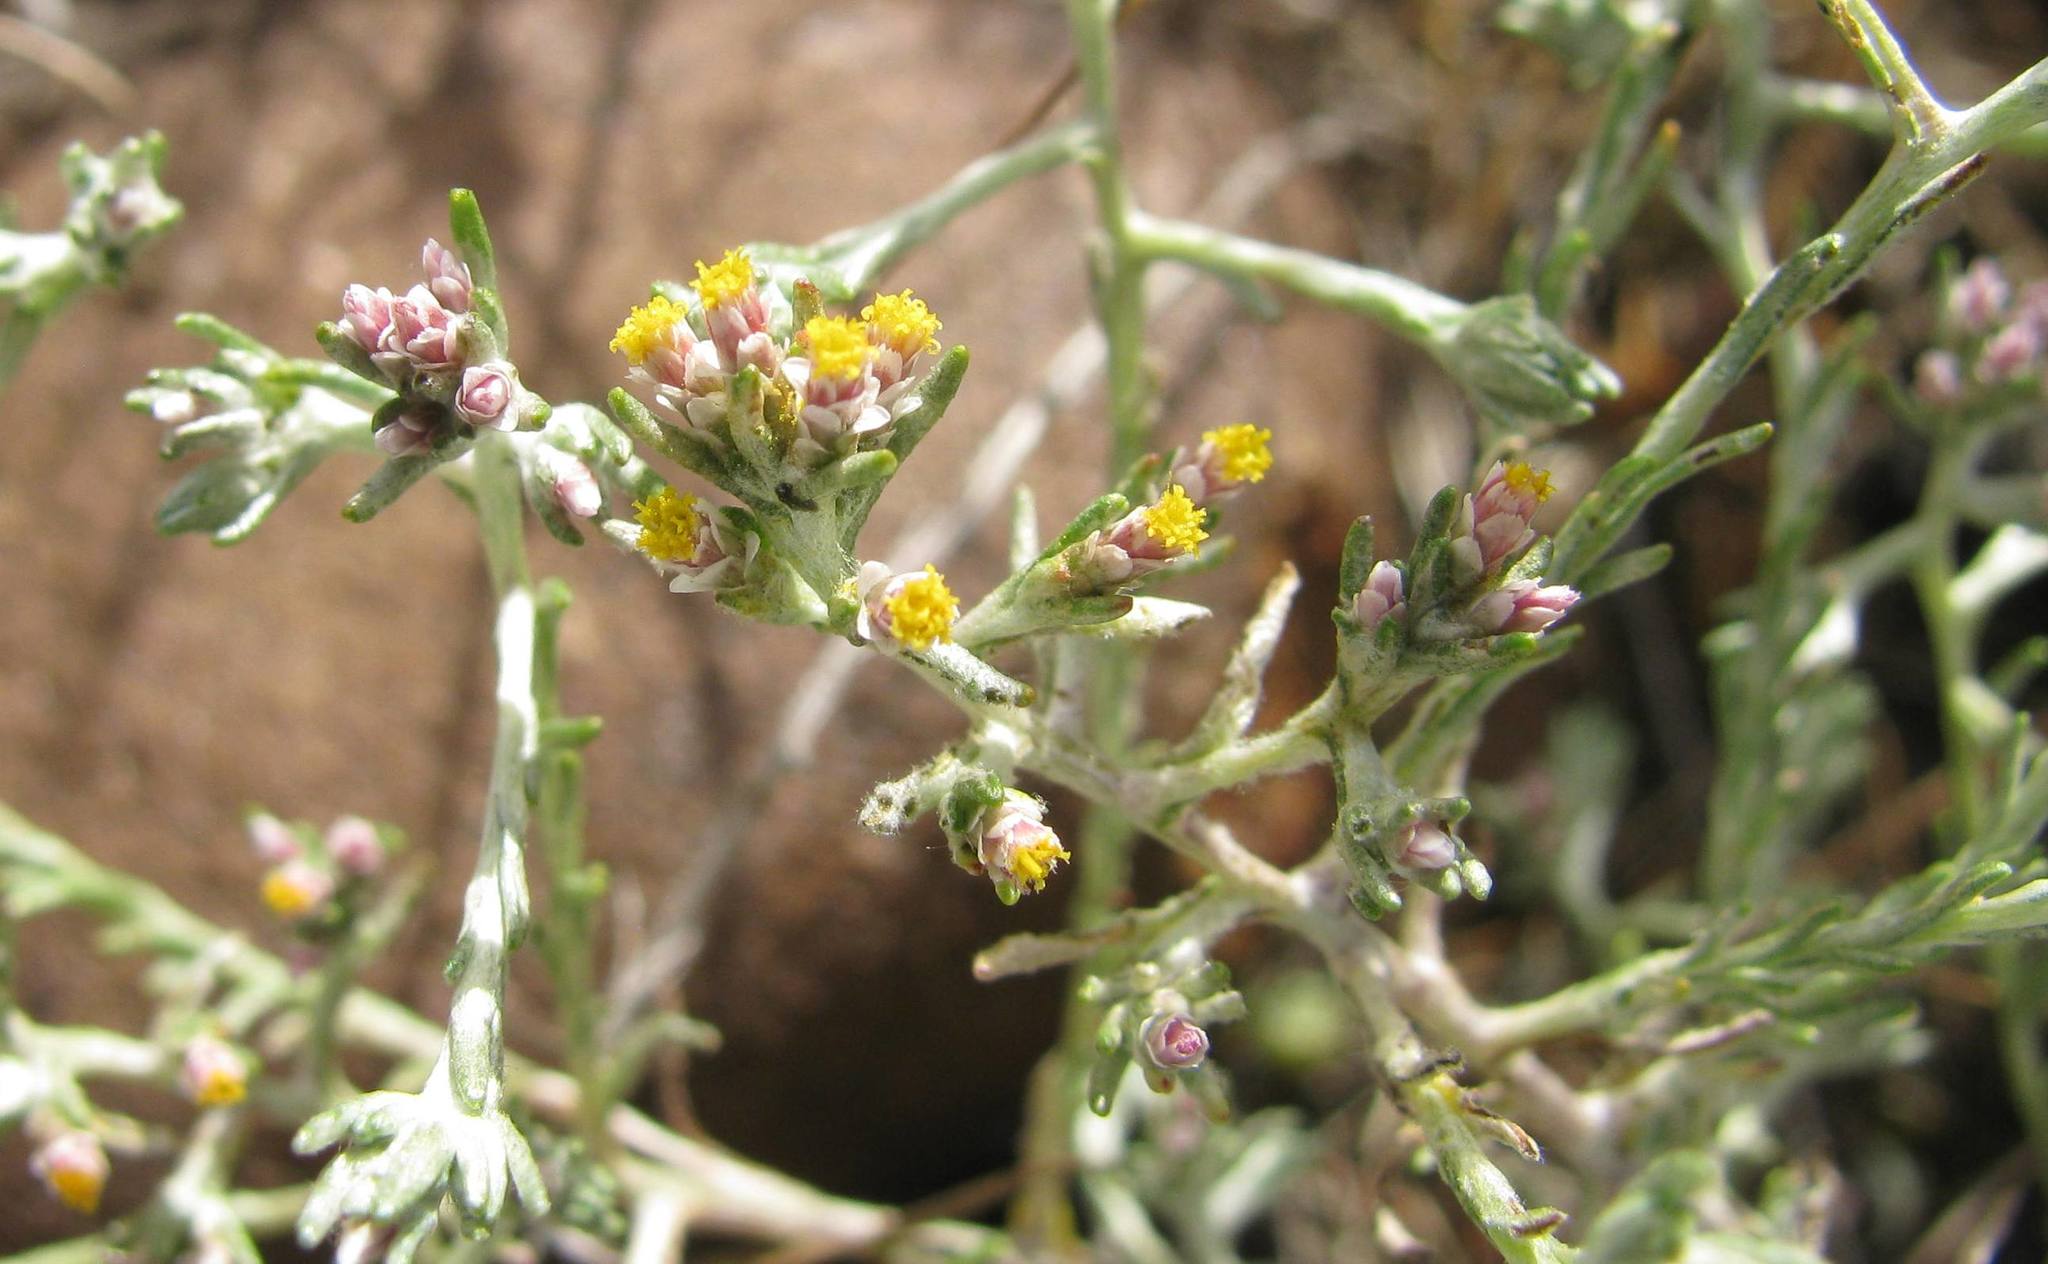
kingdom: Plantae
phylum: Tracheophyta
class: Magnoliopsida
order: Asterales
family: Asteraceae
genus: Helichrysum
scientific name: Helichrysum asperum
